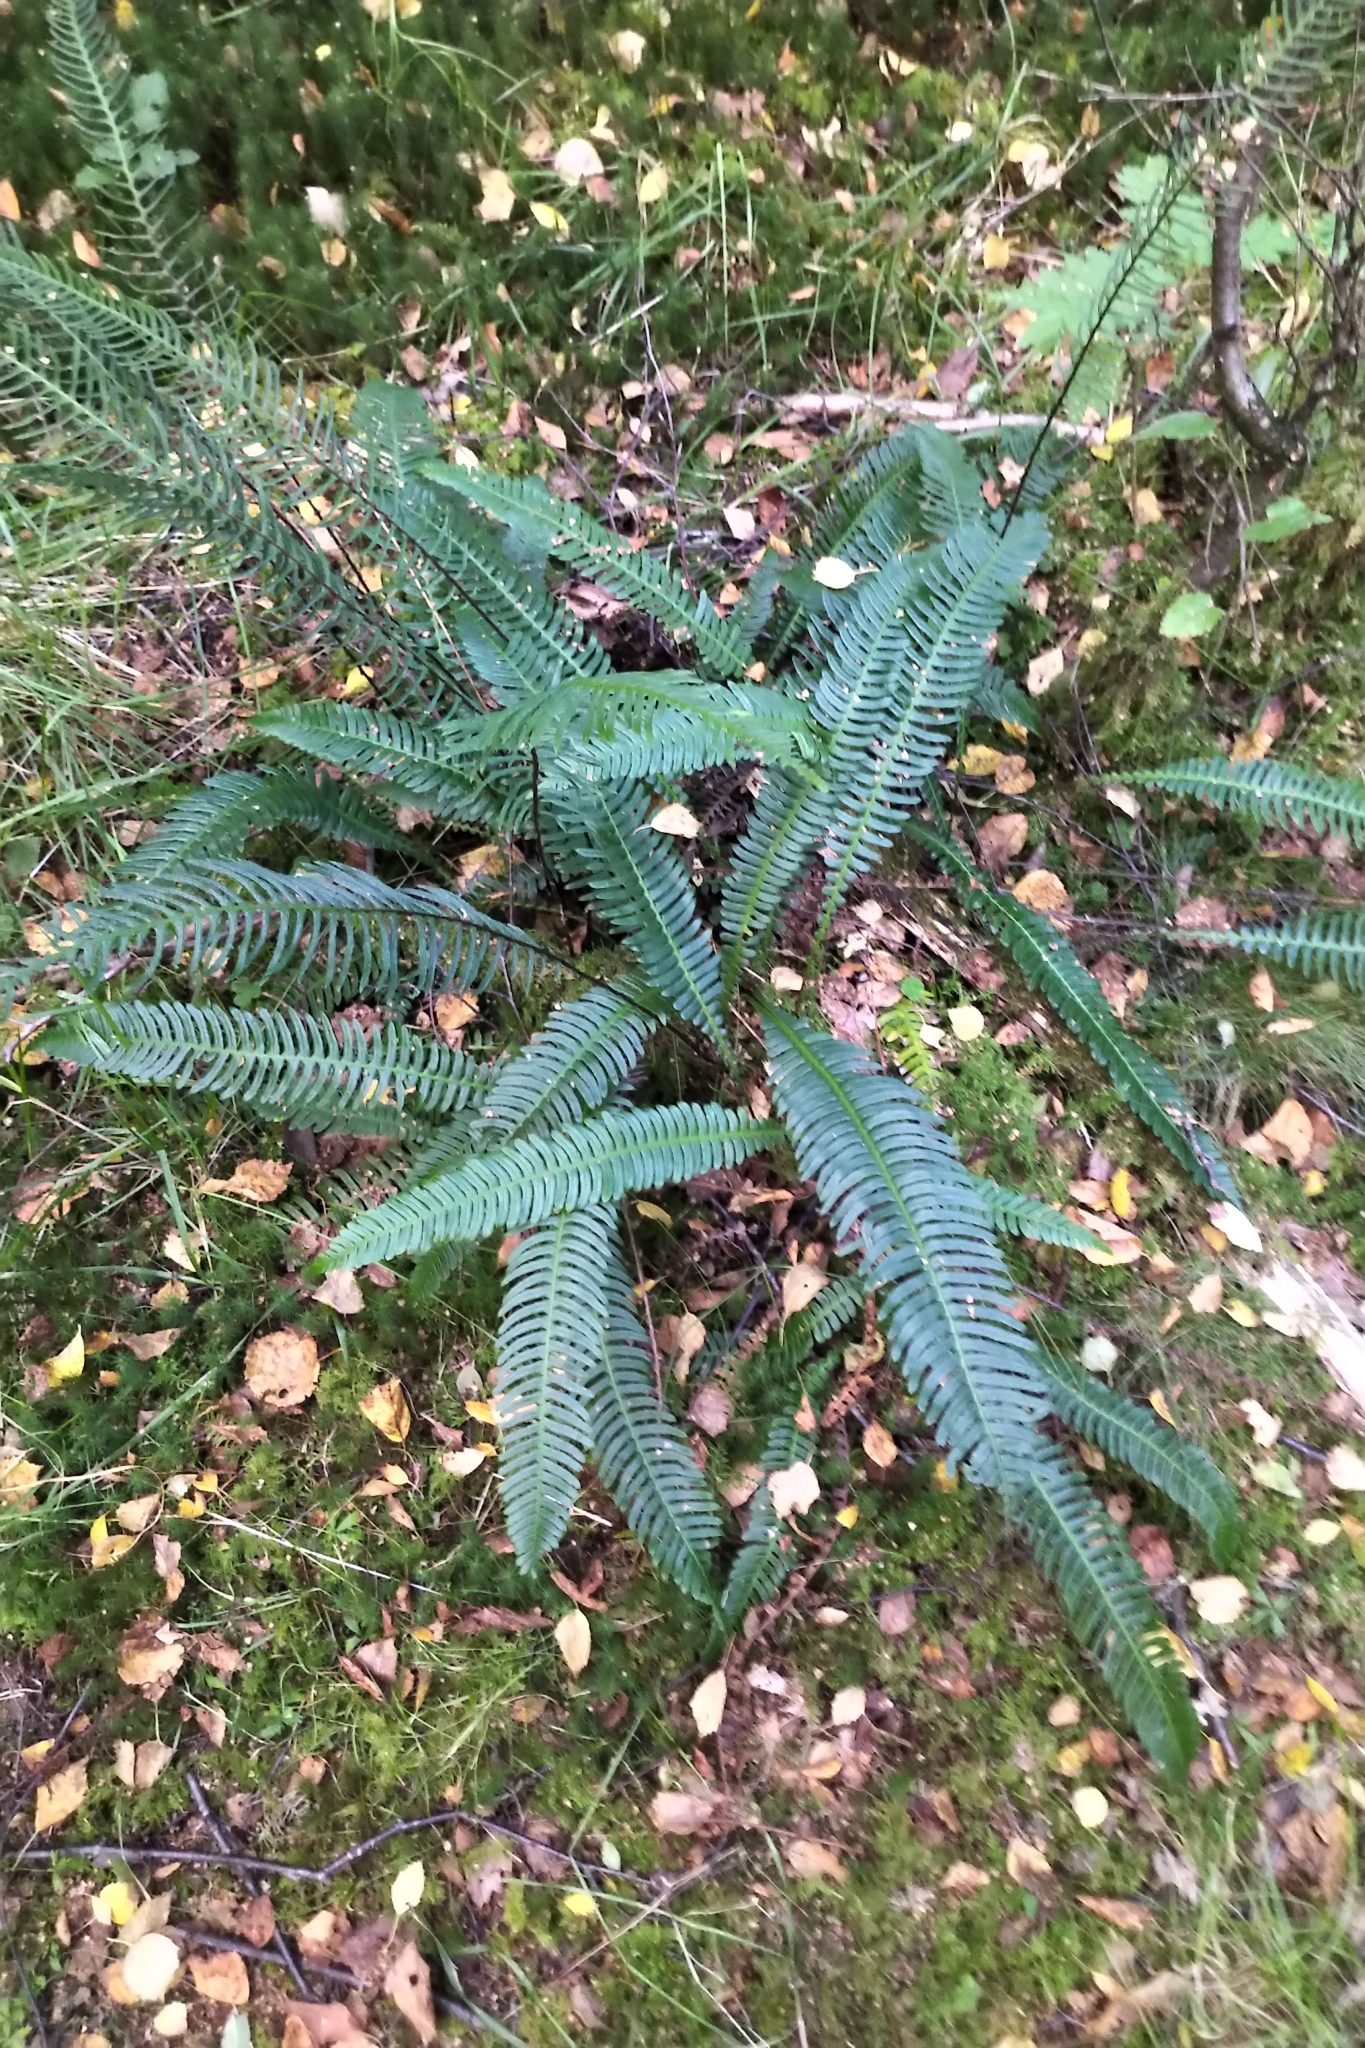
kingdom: Plantae
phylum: Tracheophyta
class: Polypodiopsida
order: Polypodiales
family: Blechnaceae
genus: Struthiopteris
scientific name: Struthiopteris spicant
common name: Deer fern
